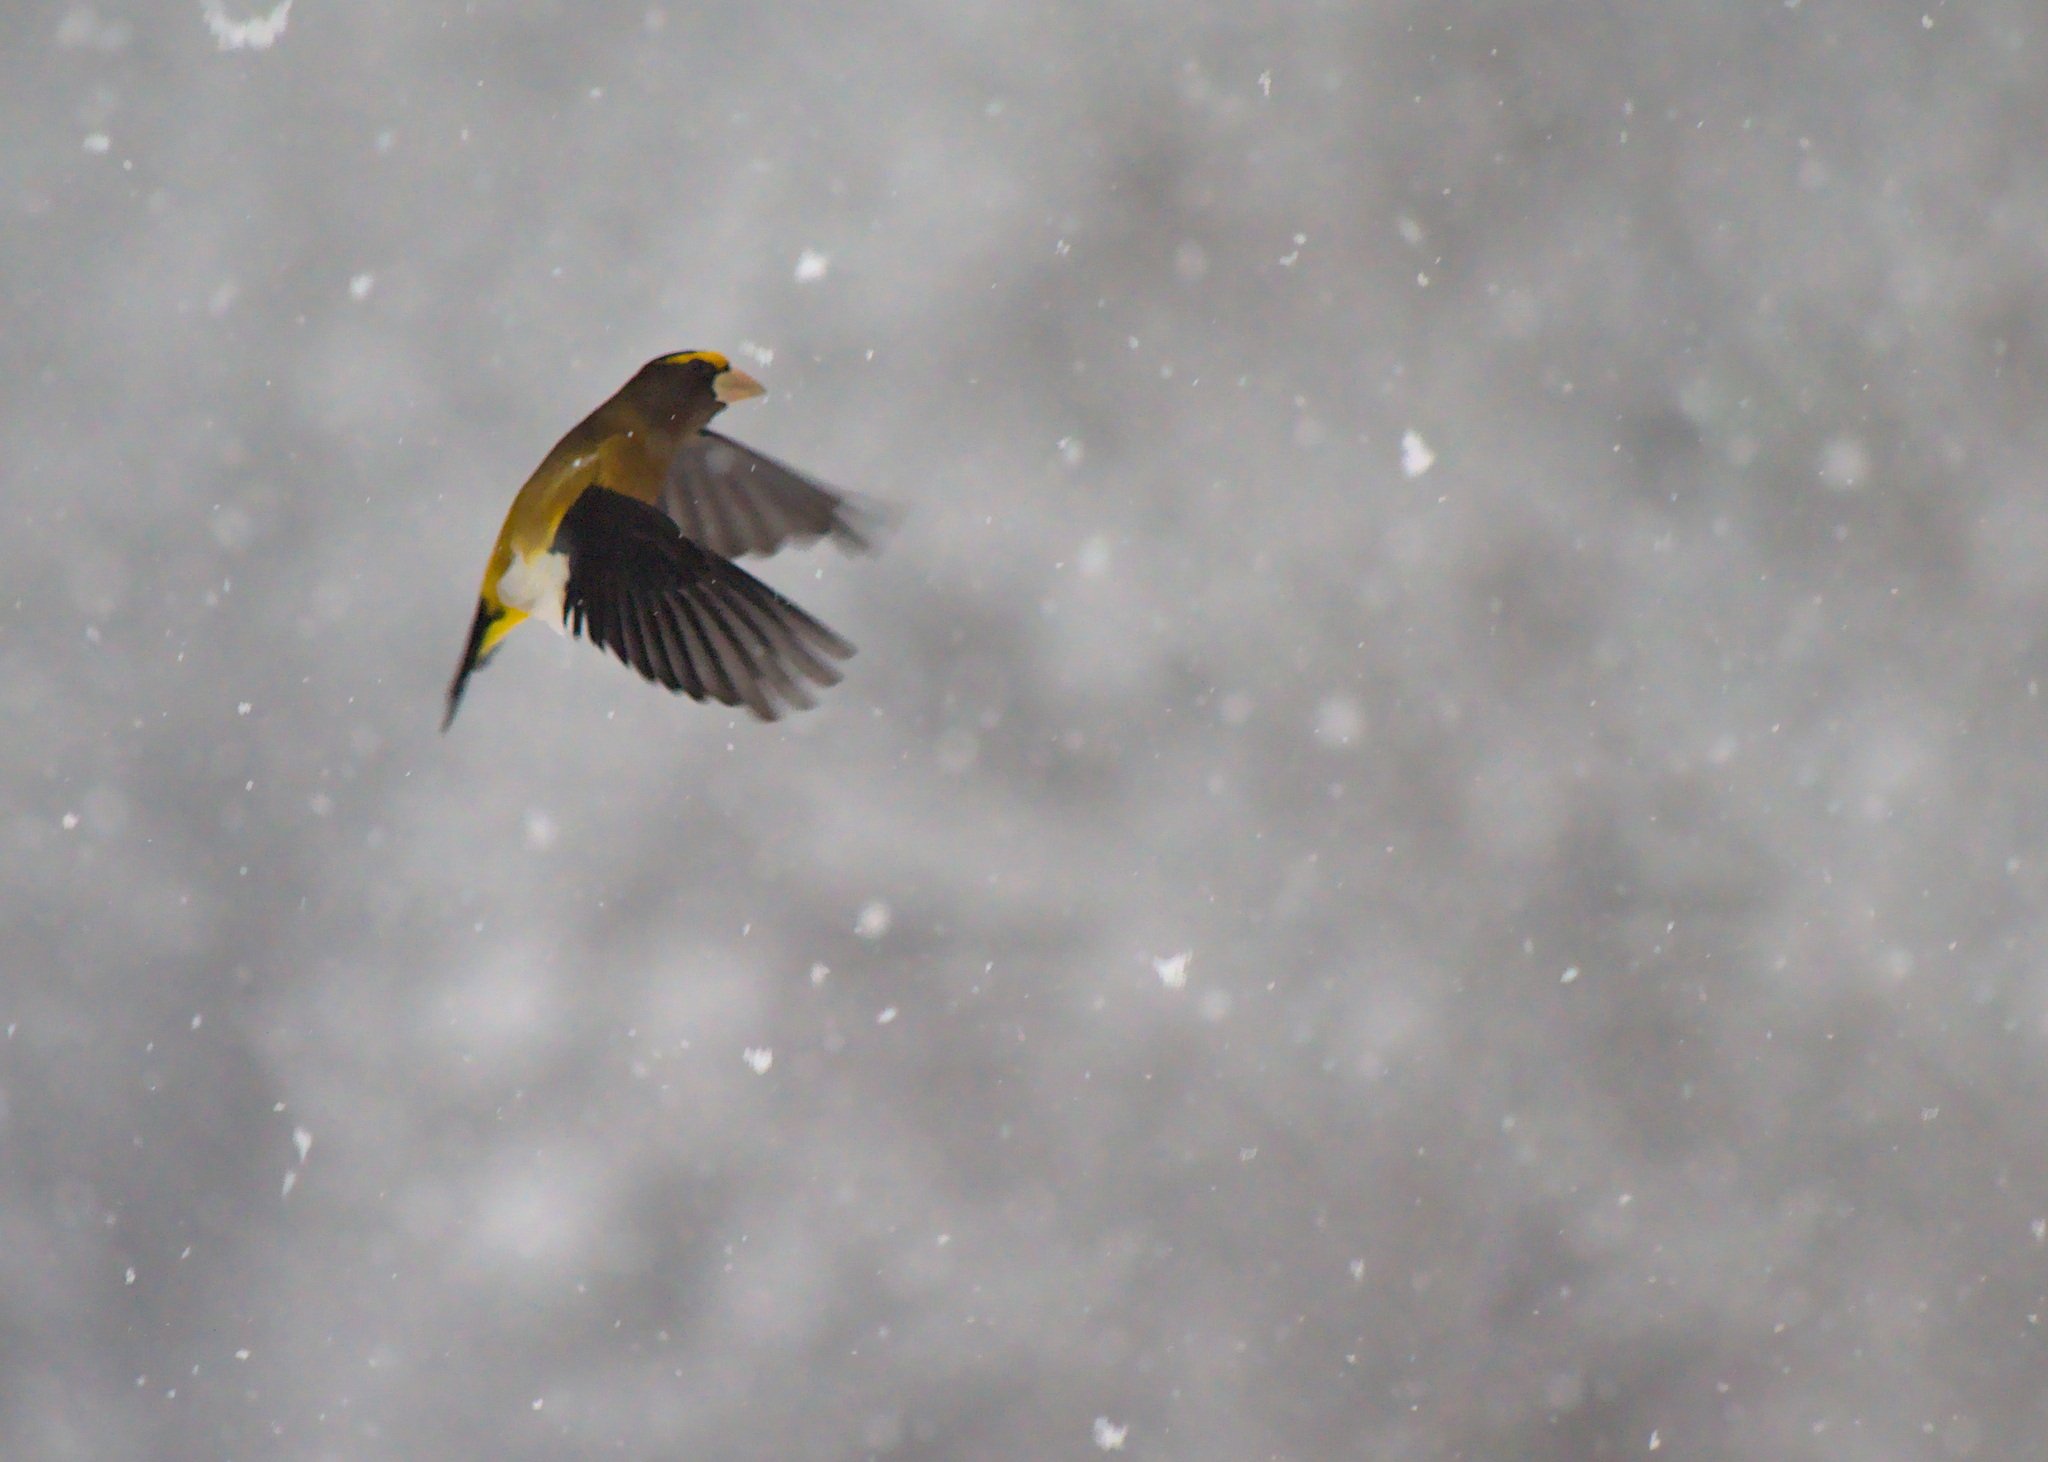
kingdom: Animalia
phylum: Chordata
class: Aves
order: Passeriformes
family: Fringillidae
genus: Hesperiphona
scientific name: Hesperiphona vespertina
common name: Evening grosbeak
